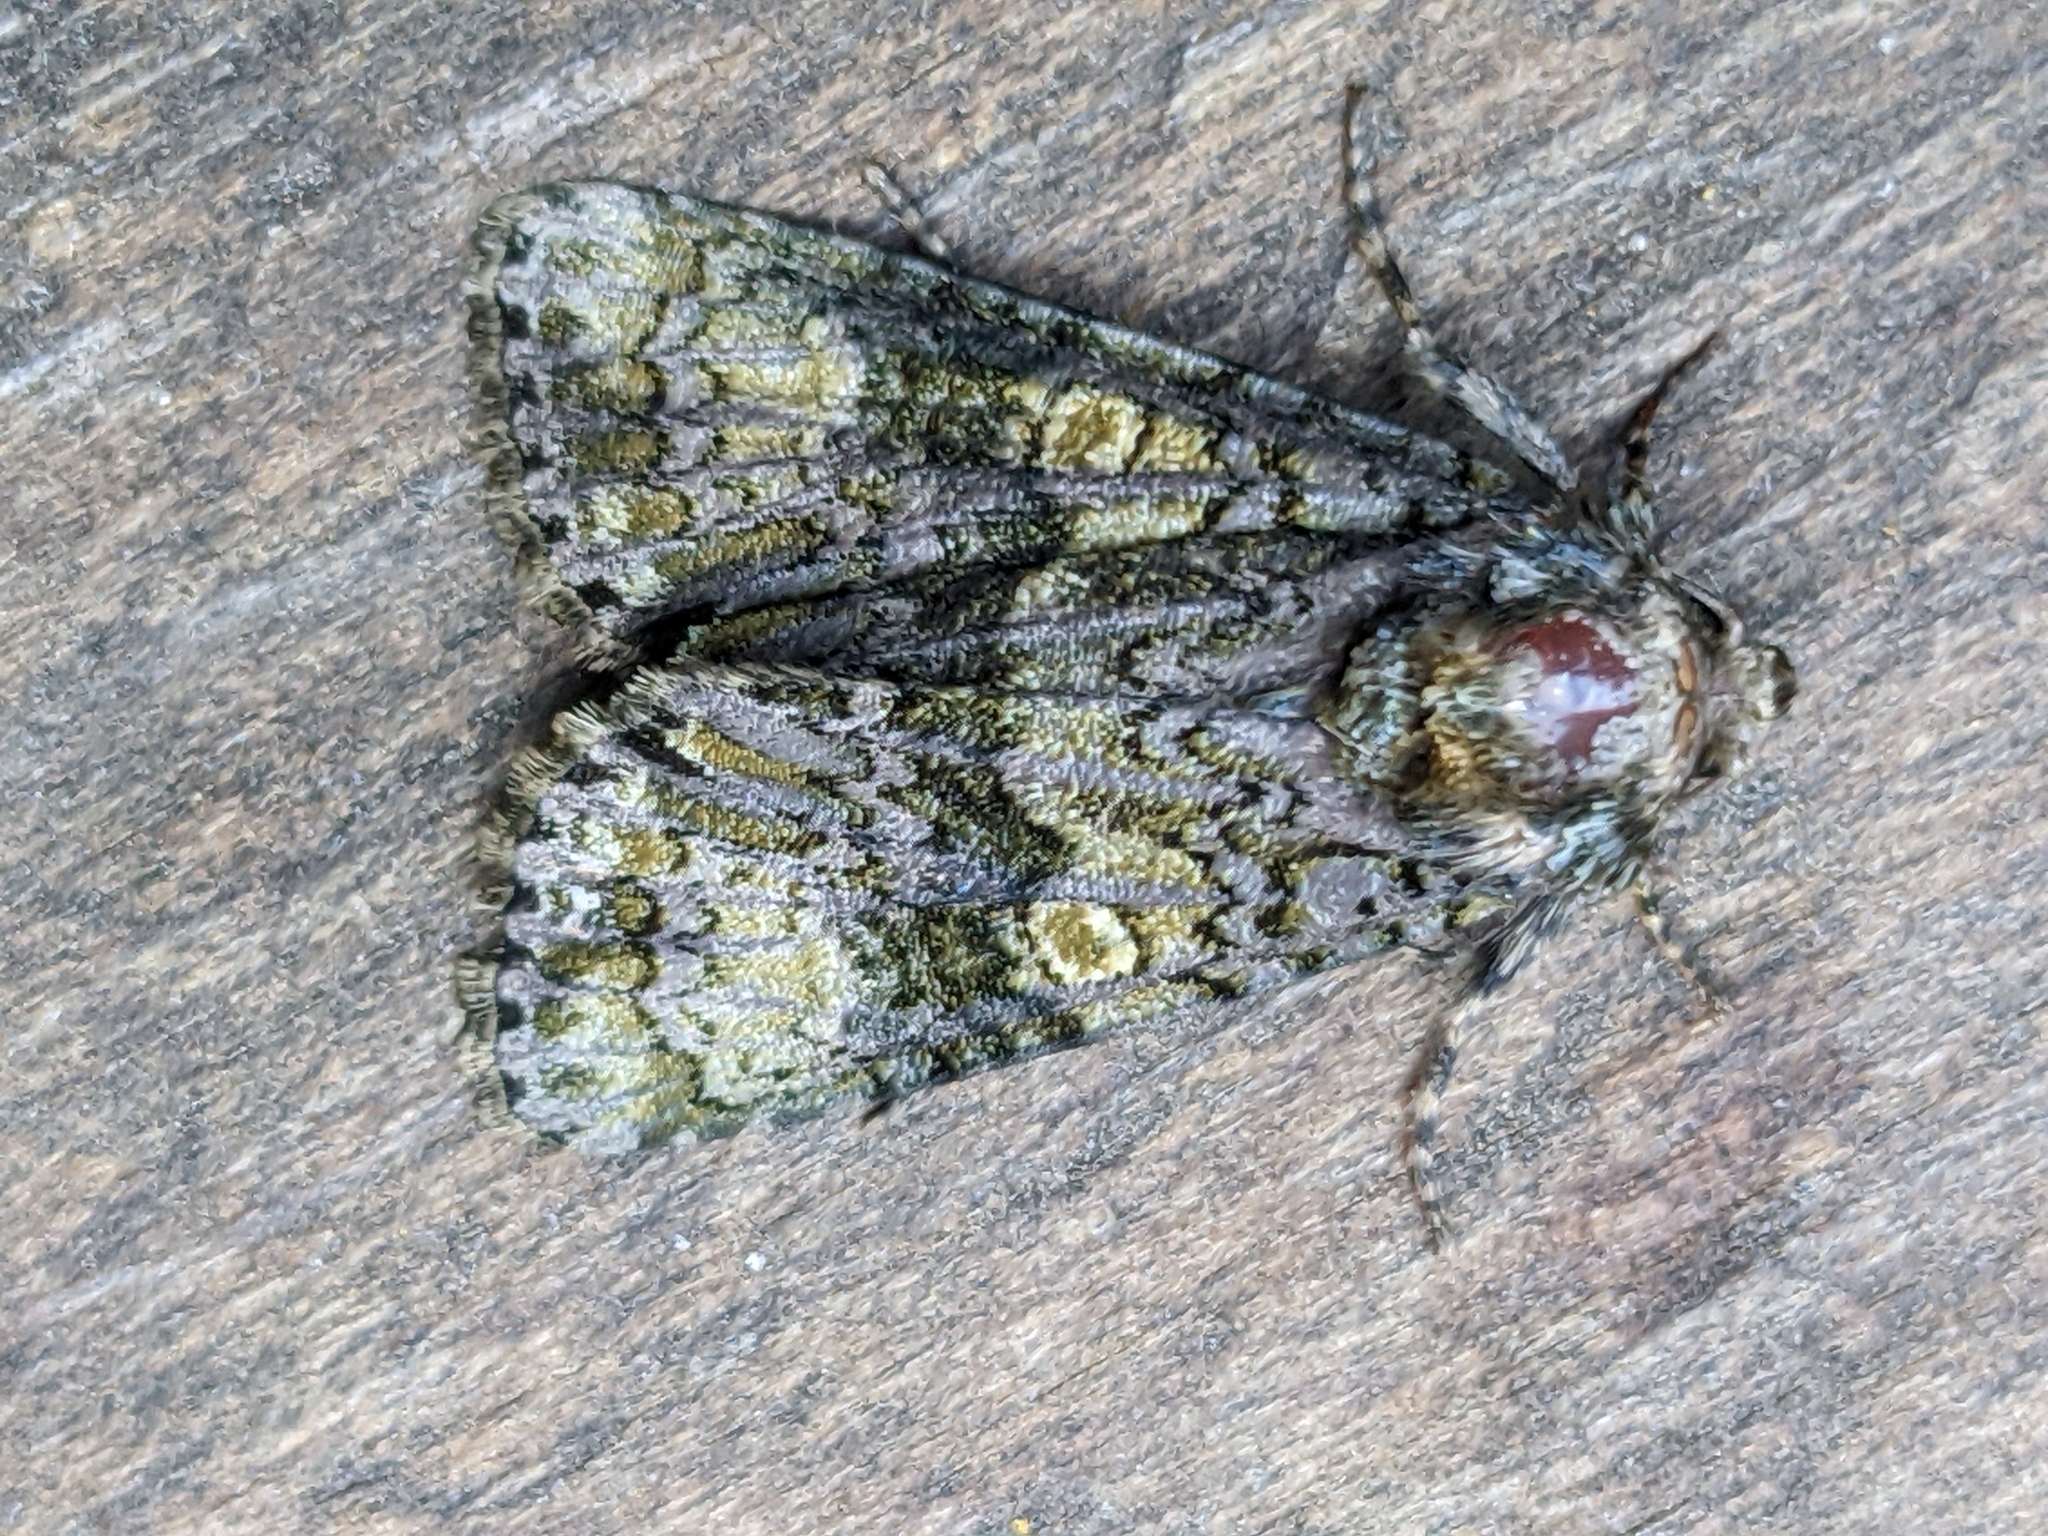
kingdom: Animalia
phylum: Arthropoda
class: Insecta
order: Lepidoptera
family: Noctuidae
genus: Craniophora
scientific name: Craniophora ligustri
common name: Coronet
